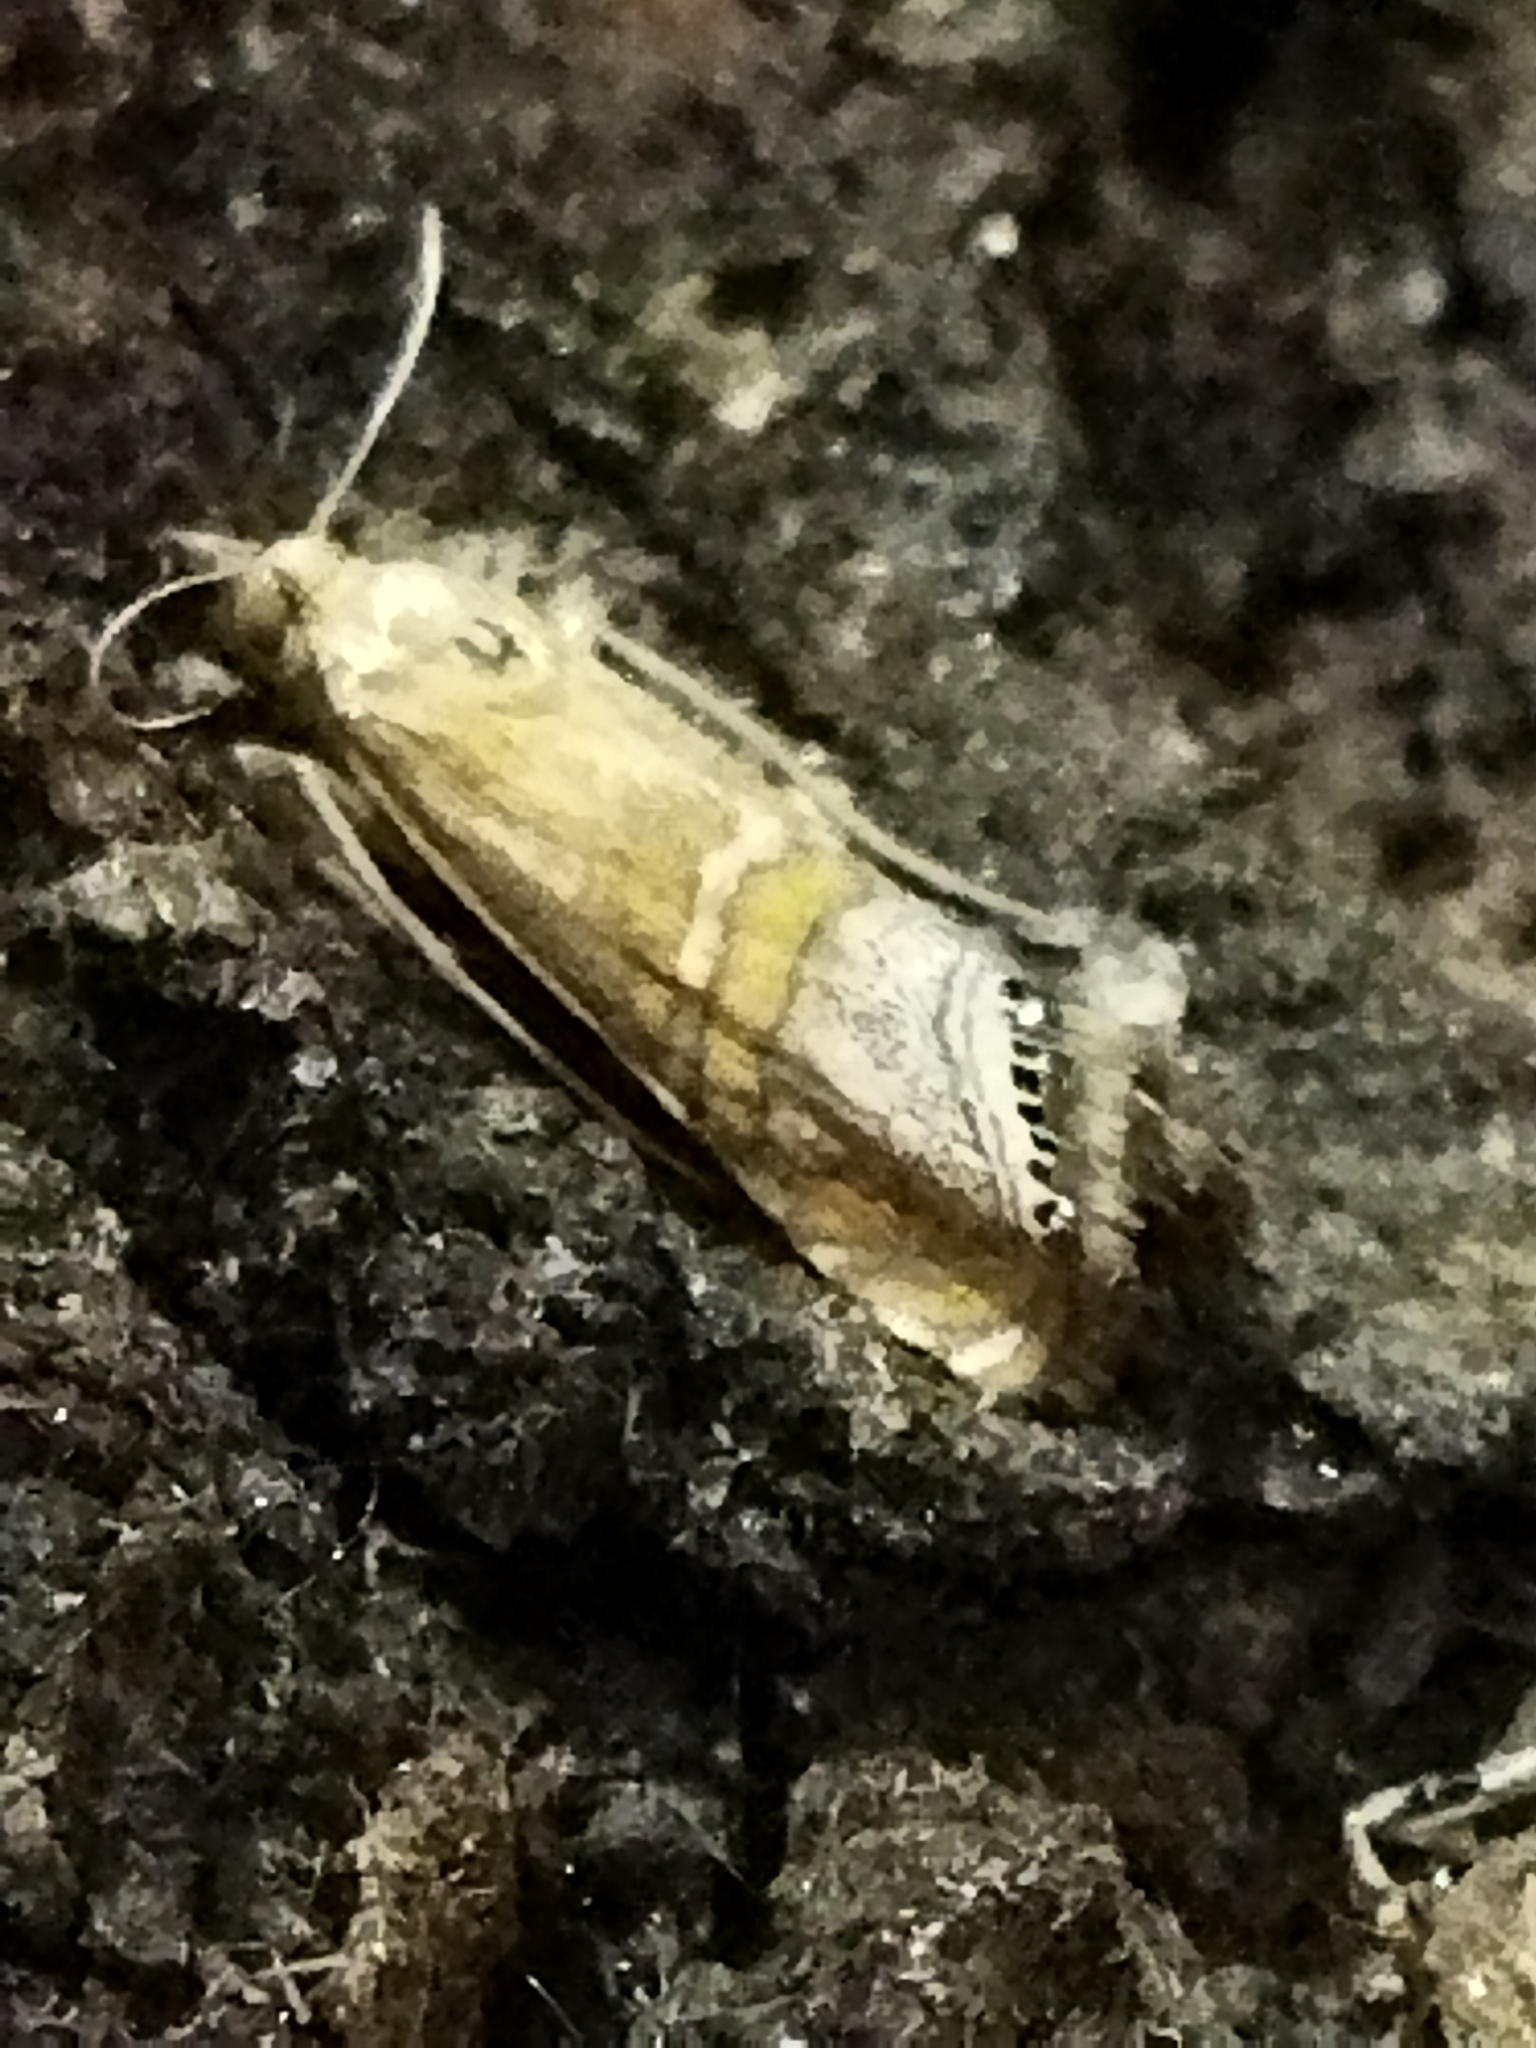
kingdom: Animalia
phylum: Arthropoda
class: Insecta
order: Lepidoptera
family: Crambidae
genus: Euchromius
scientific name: Euchromius bella
